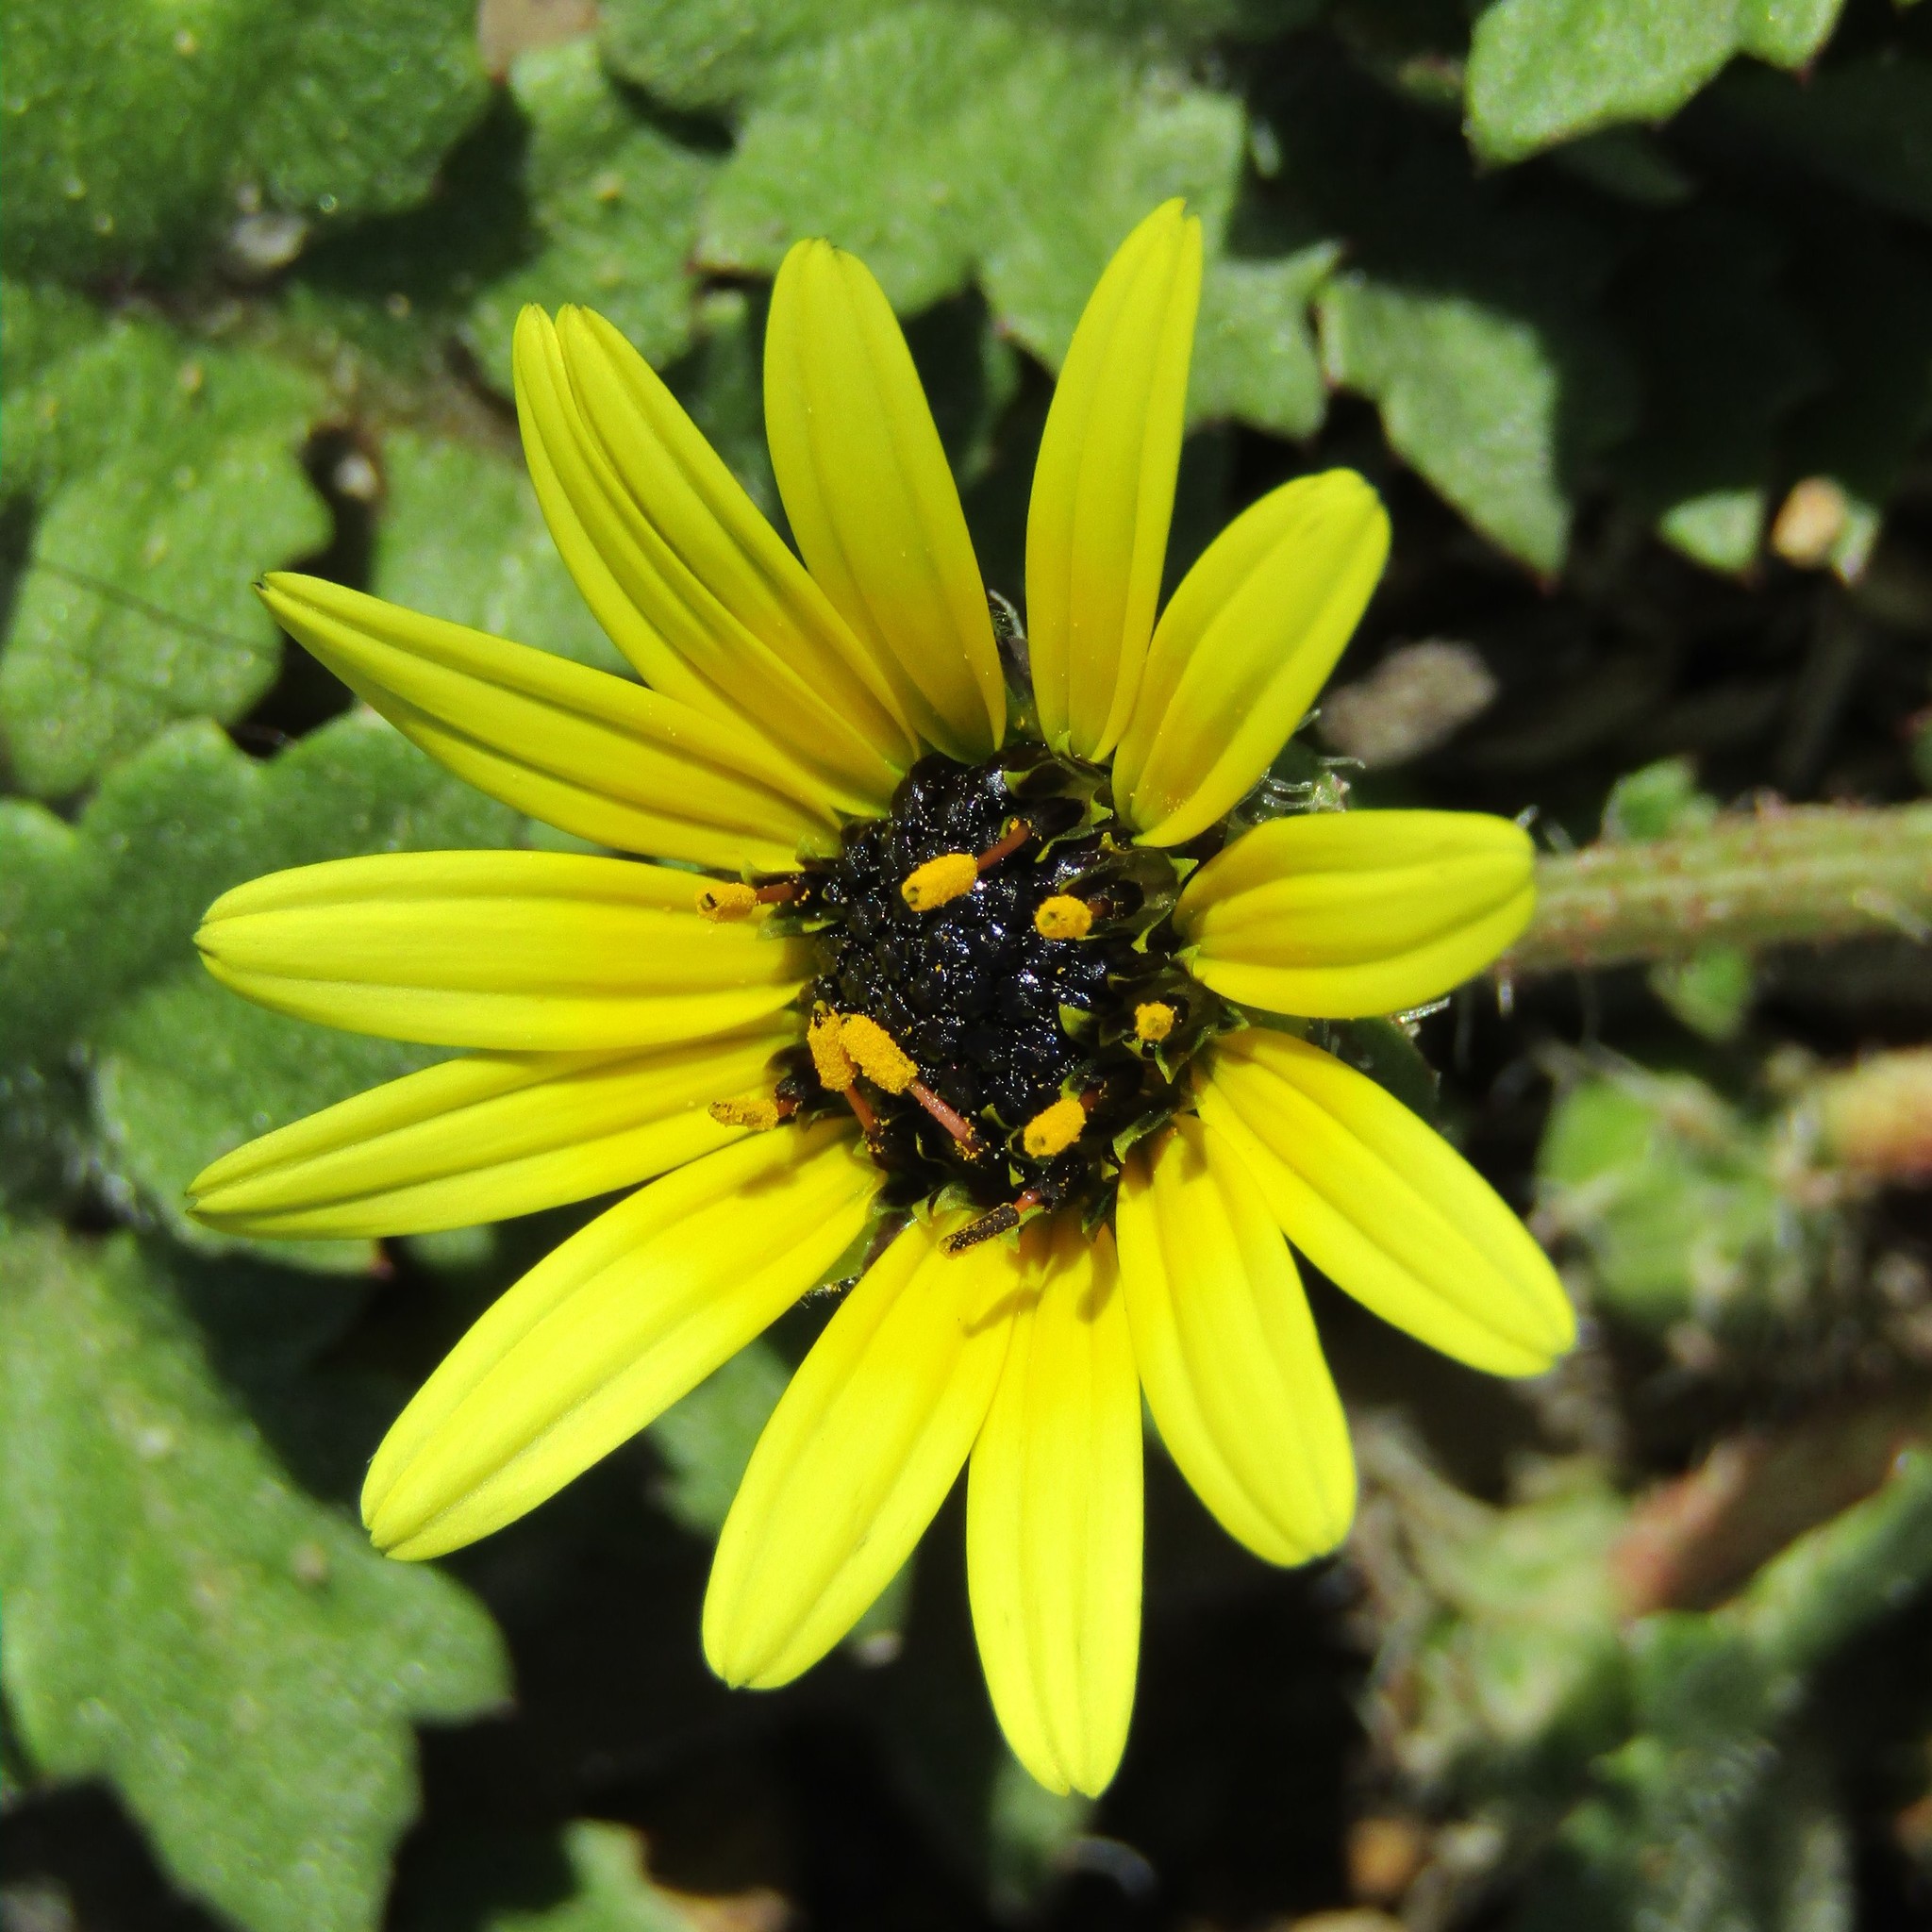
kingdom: Plantae
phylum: Tracheophyta
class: Magnoliopsida
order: Asterales
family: Asteraceae
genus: Arctotheca
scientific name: Arctotheca calendula
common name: Capeweed
